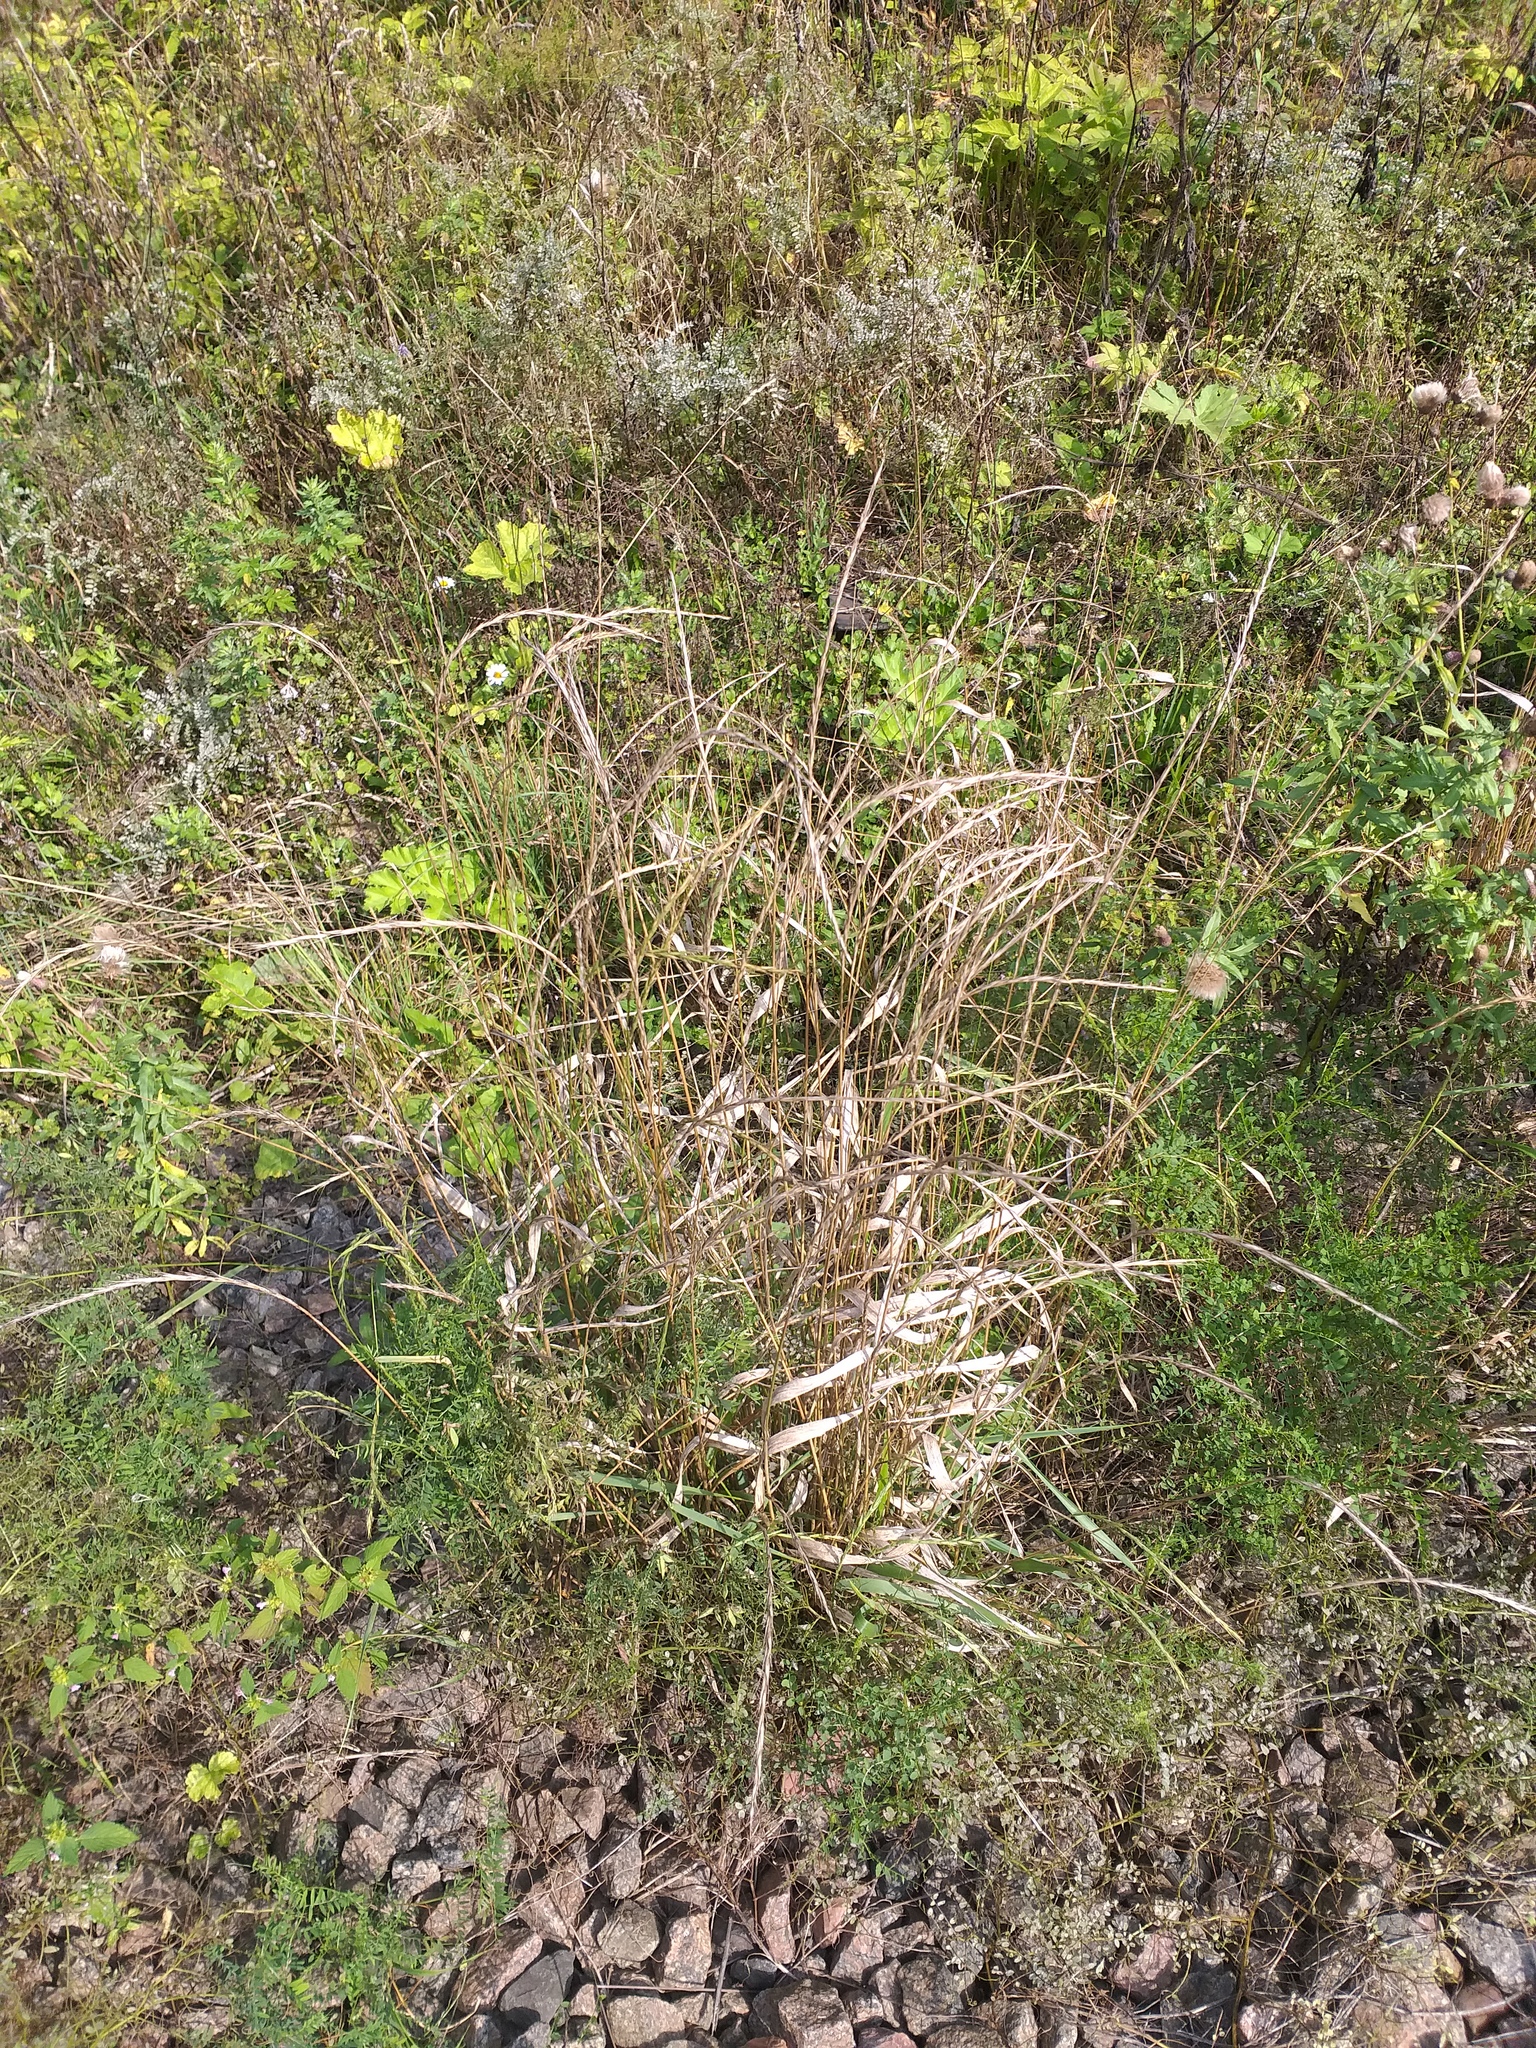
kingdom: Plantae
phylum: Tracheophyta
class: Liliopsida
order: Poales
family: Poaceae
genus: Elymus
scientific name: Elymus caninus
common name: Bearded couch
